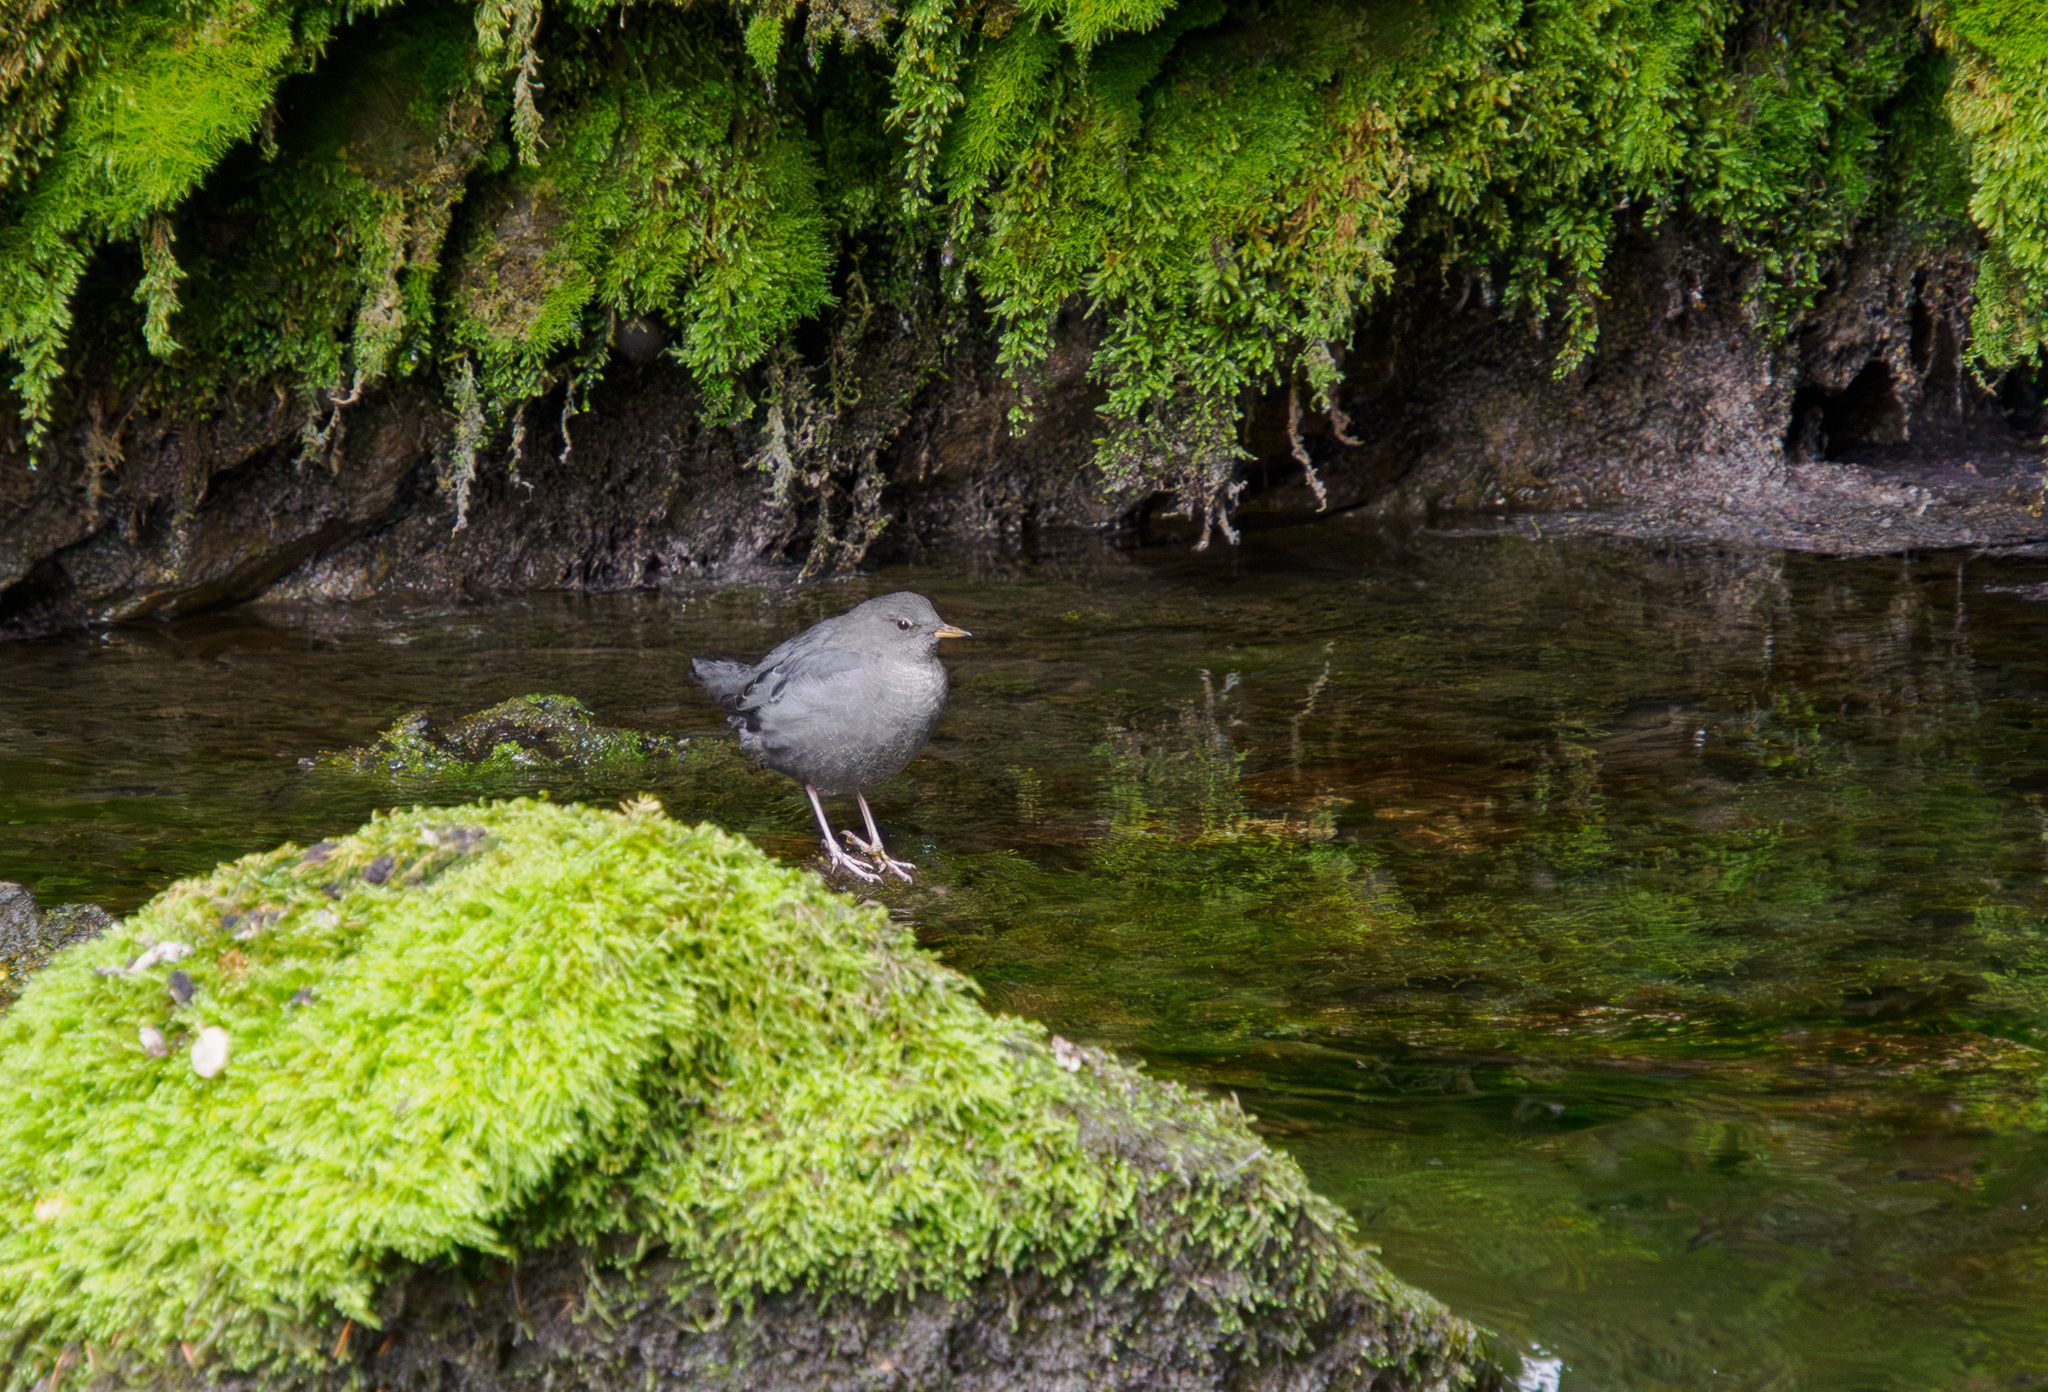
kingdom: Animalia
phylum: Chordata
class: Aves
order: Passeriformes
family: Cinclidae
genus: Cinclus
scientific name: Cinclus mexicanus
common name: American dipper
